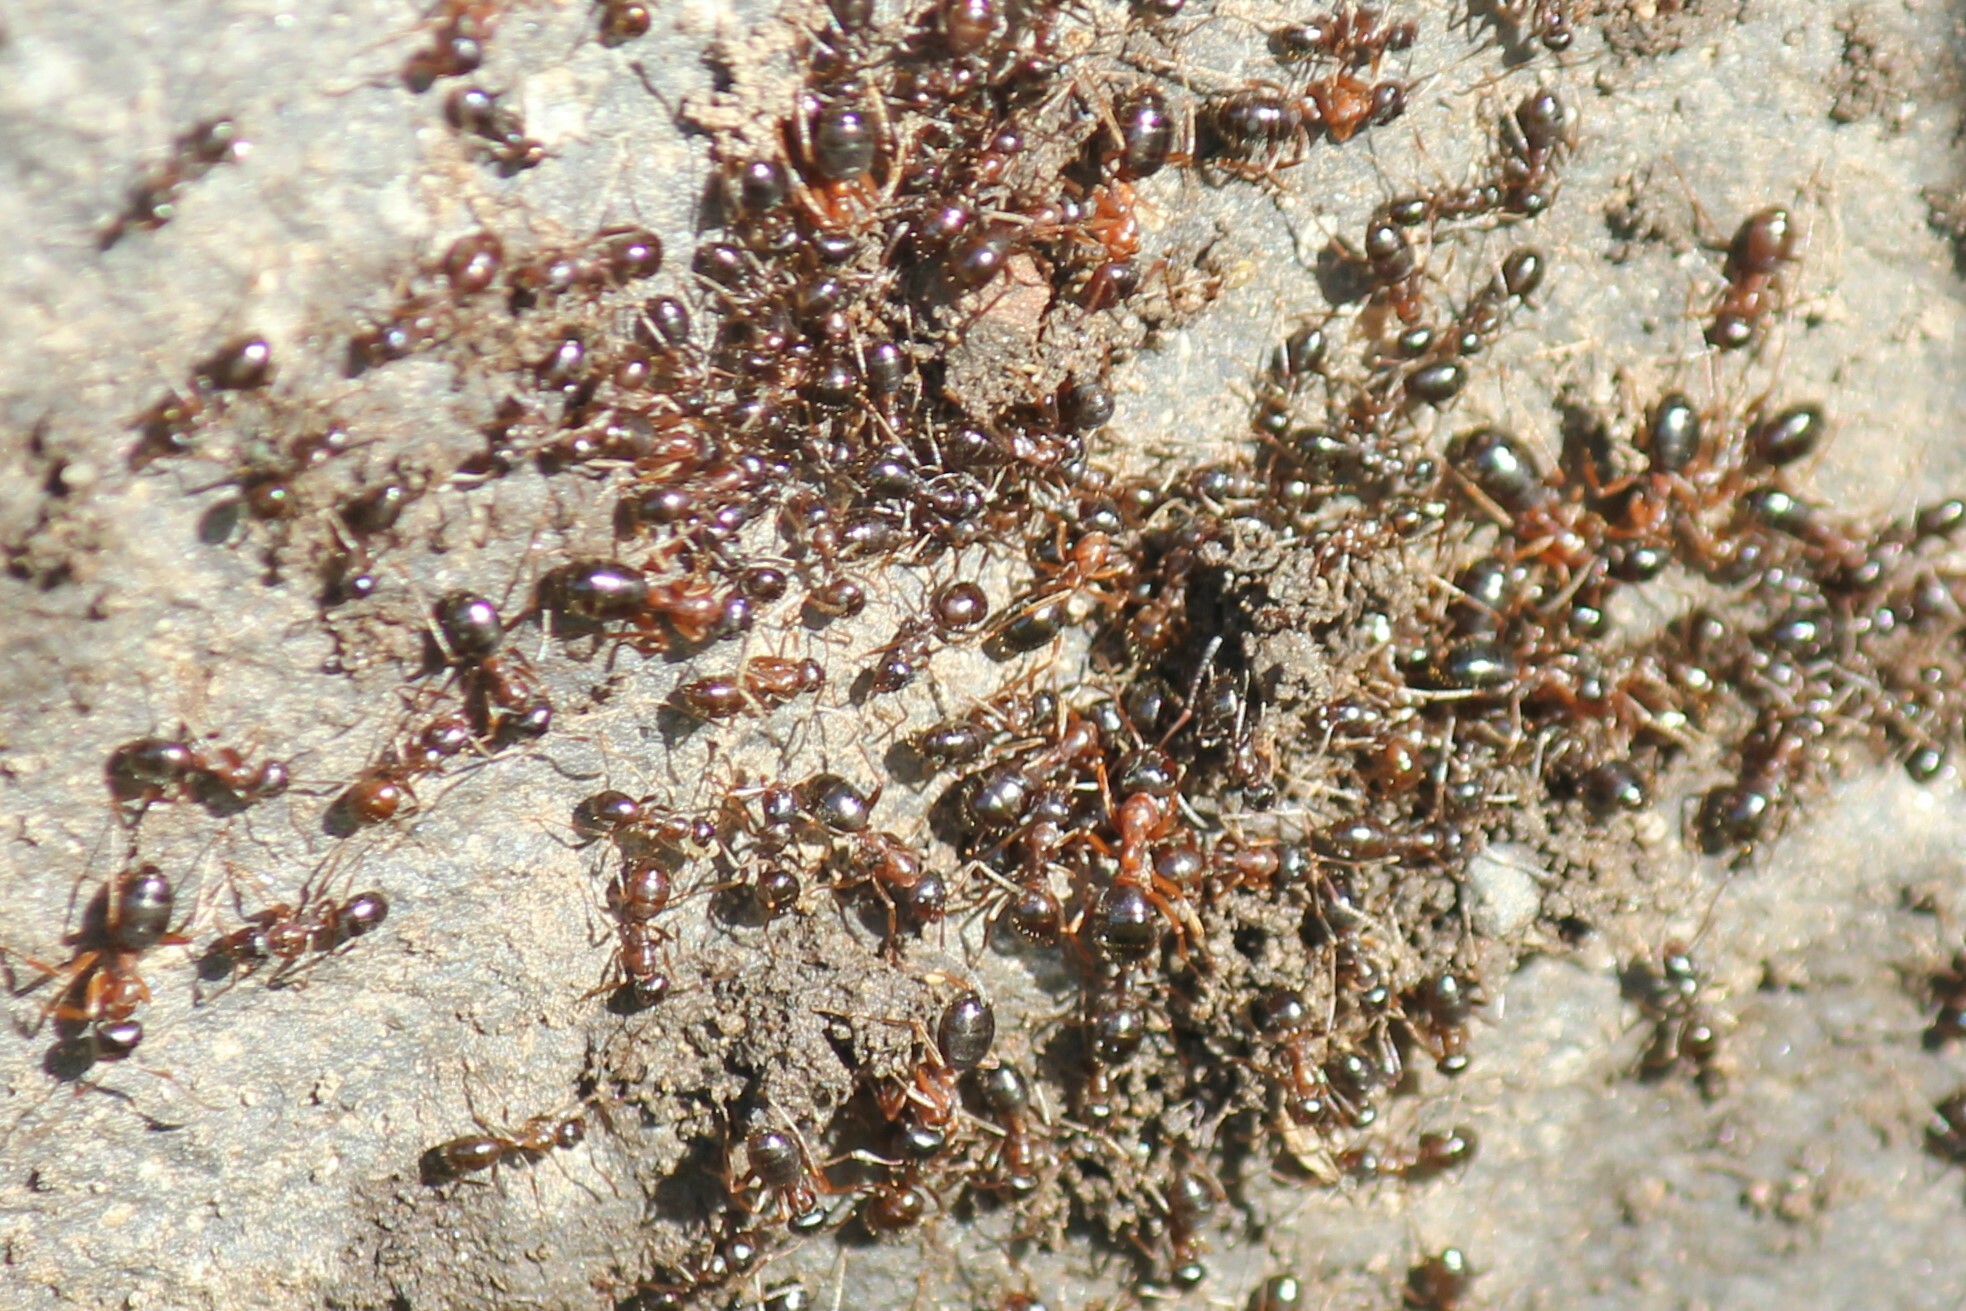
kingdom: Animalia
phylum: Arthropoda
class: Insecta
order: Hymenoptera
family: Formicidae
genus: Formica
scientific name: Formica subpolita
